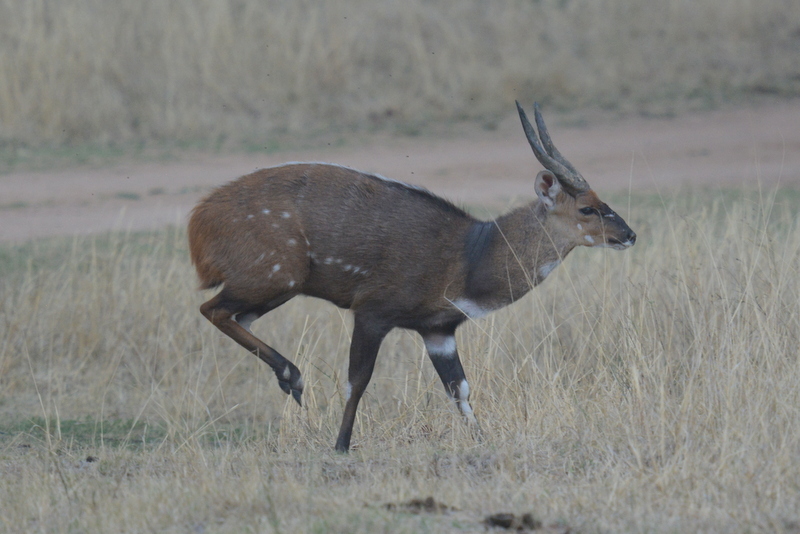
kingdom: Animalia
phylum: Chordata
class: Mammalia
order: Artiodactyla
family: Bovidae
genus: Tragelaphus
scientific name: Tragelaphus scriptus
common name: Bushbuck
